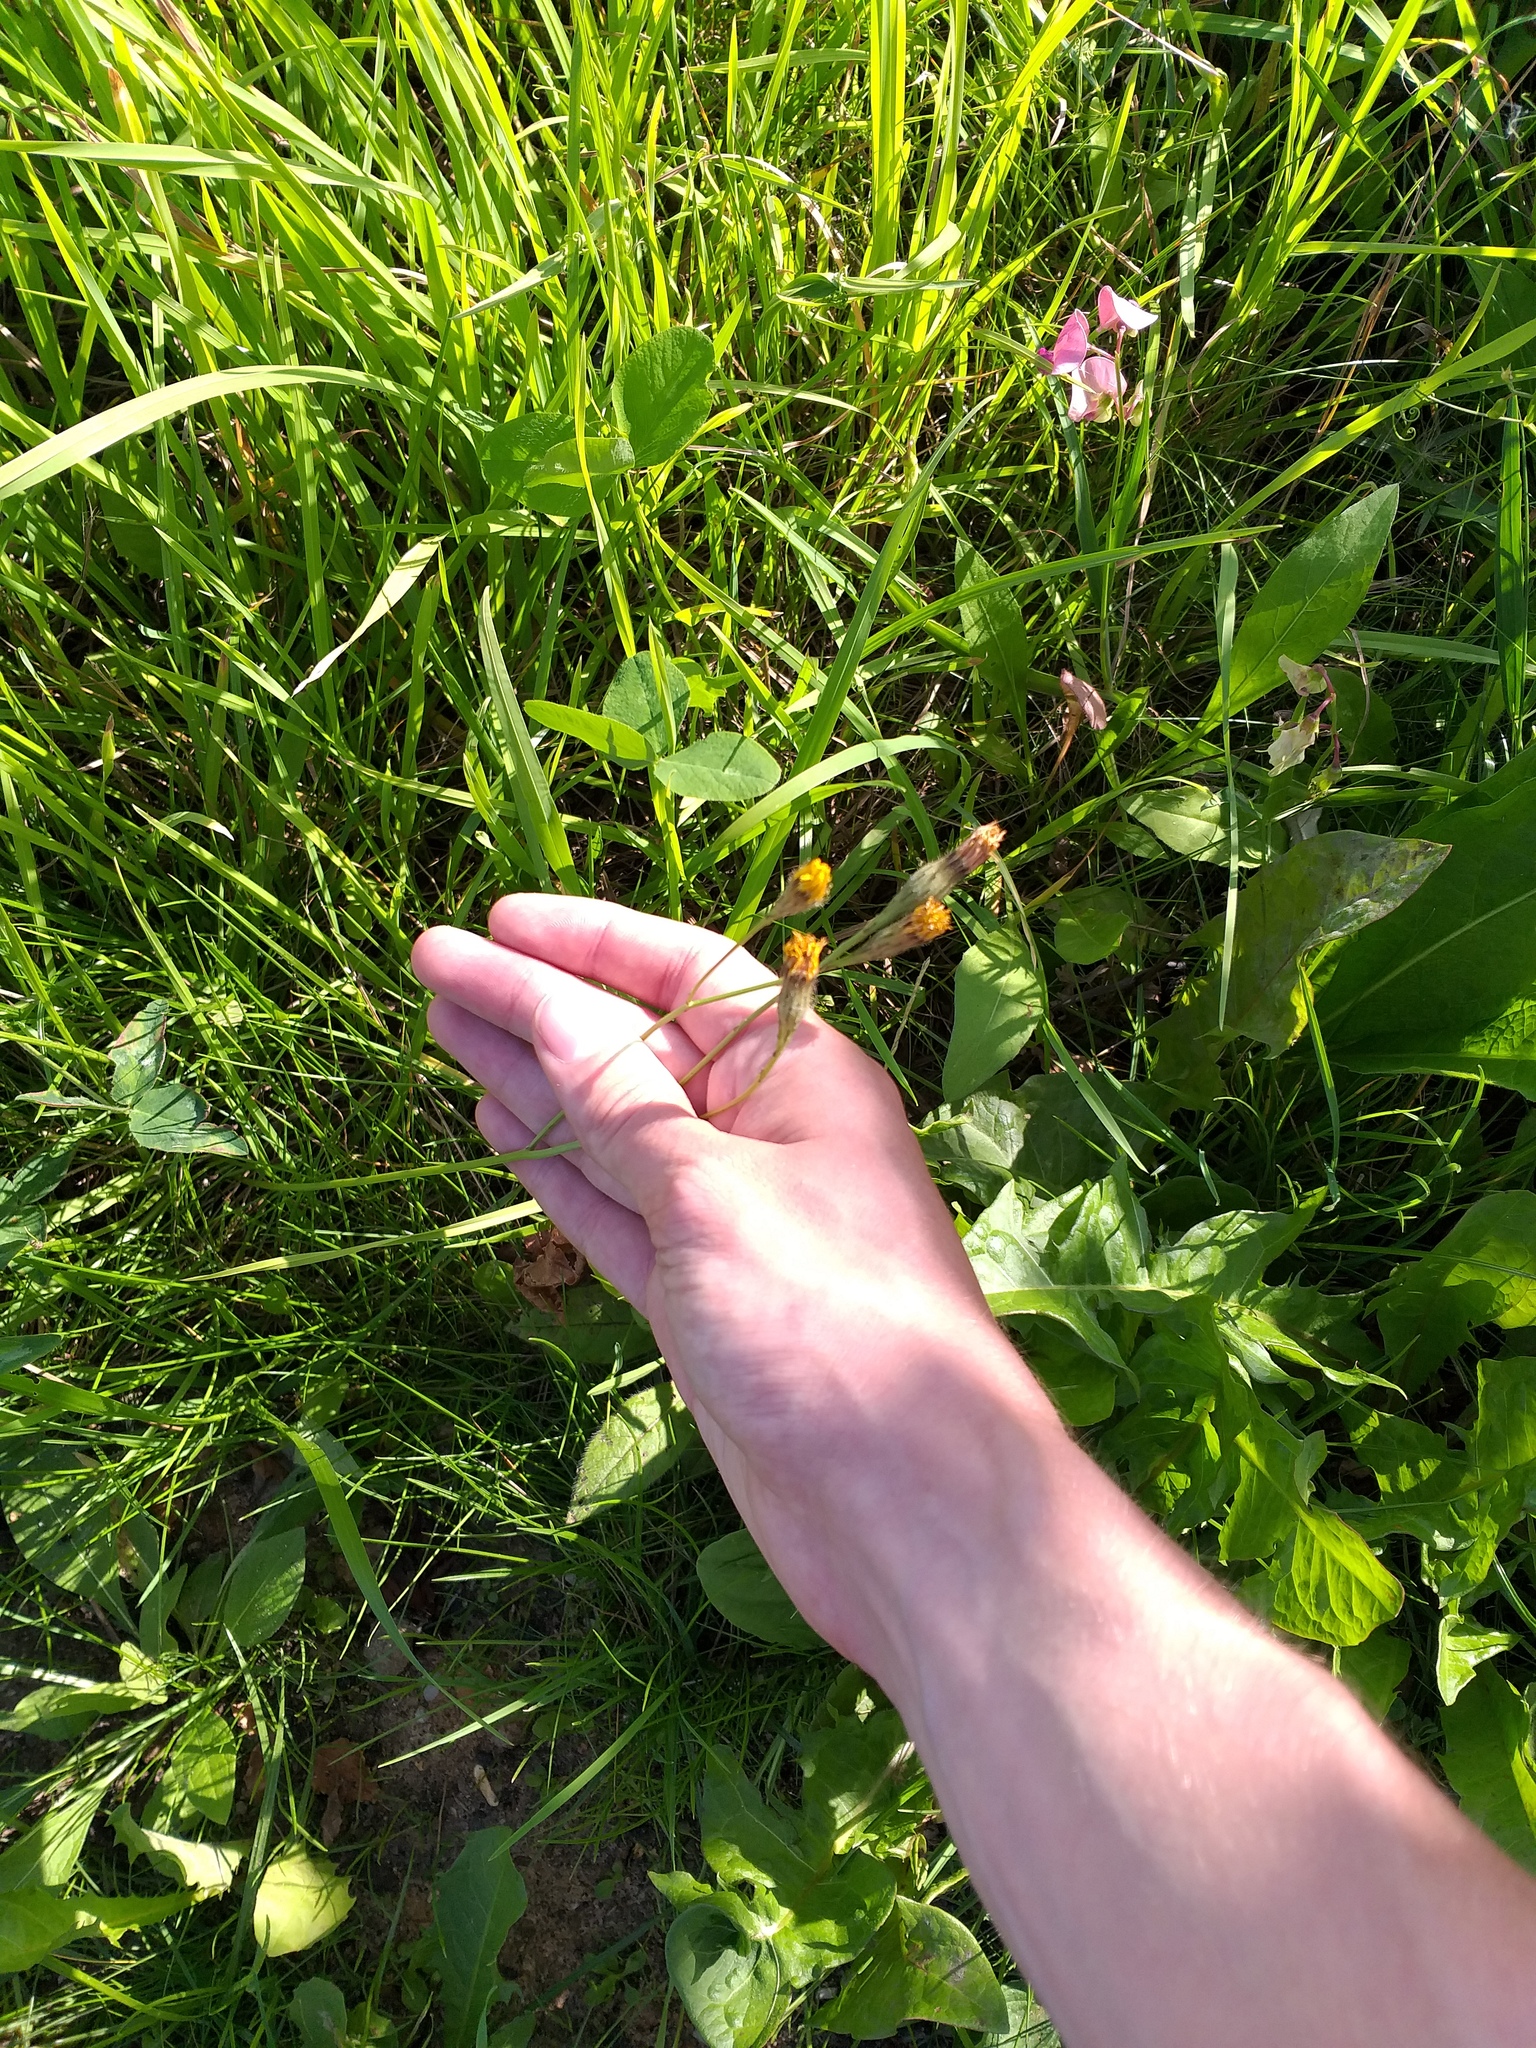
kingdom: Plantae
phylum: Tracheophyta
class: Magnoliopsida
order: Asterales
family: Asteraceae
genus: Scorzoneroides
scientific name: Scorzoneroides autumnalis
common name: Autumn hawkbit
